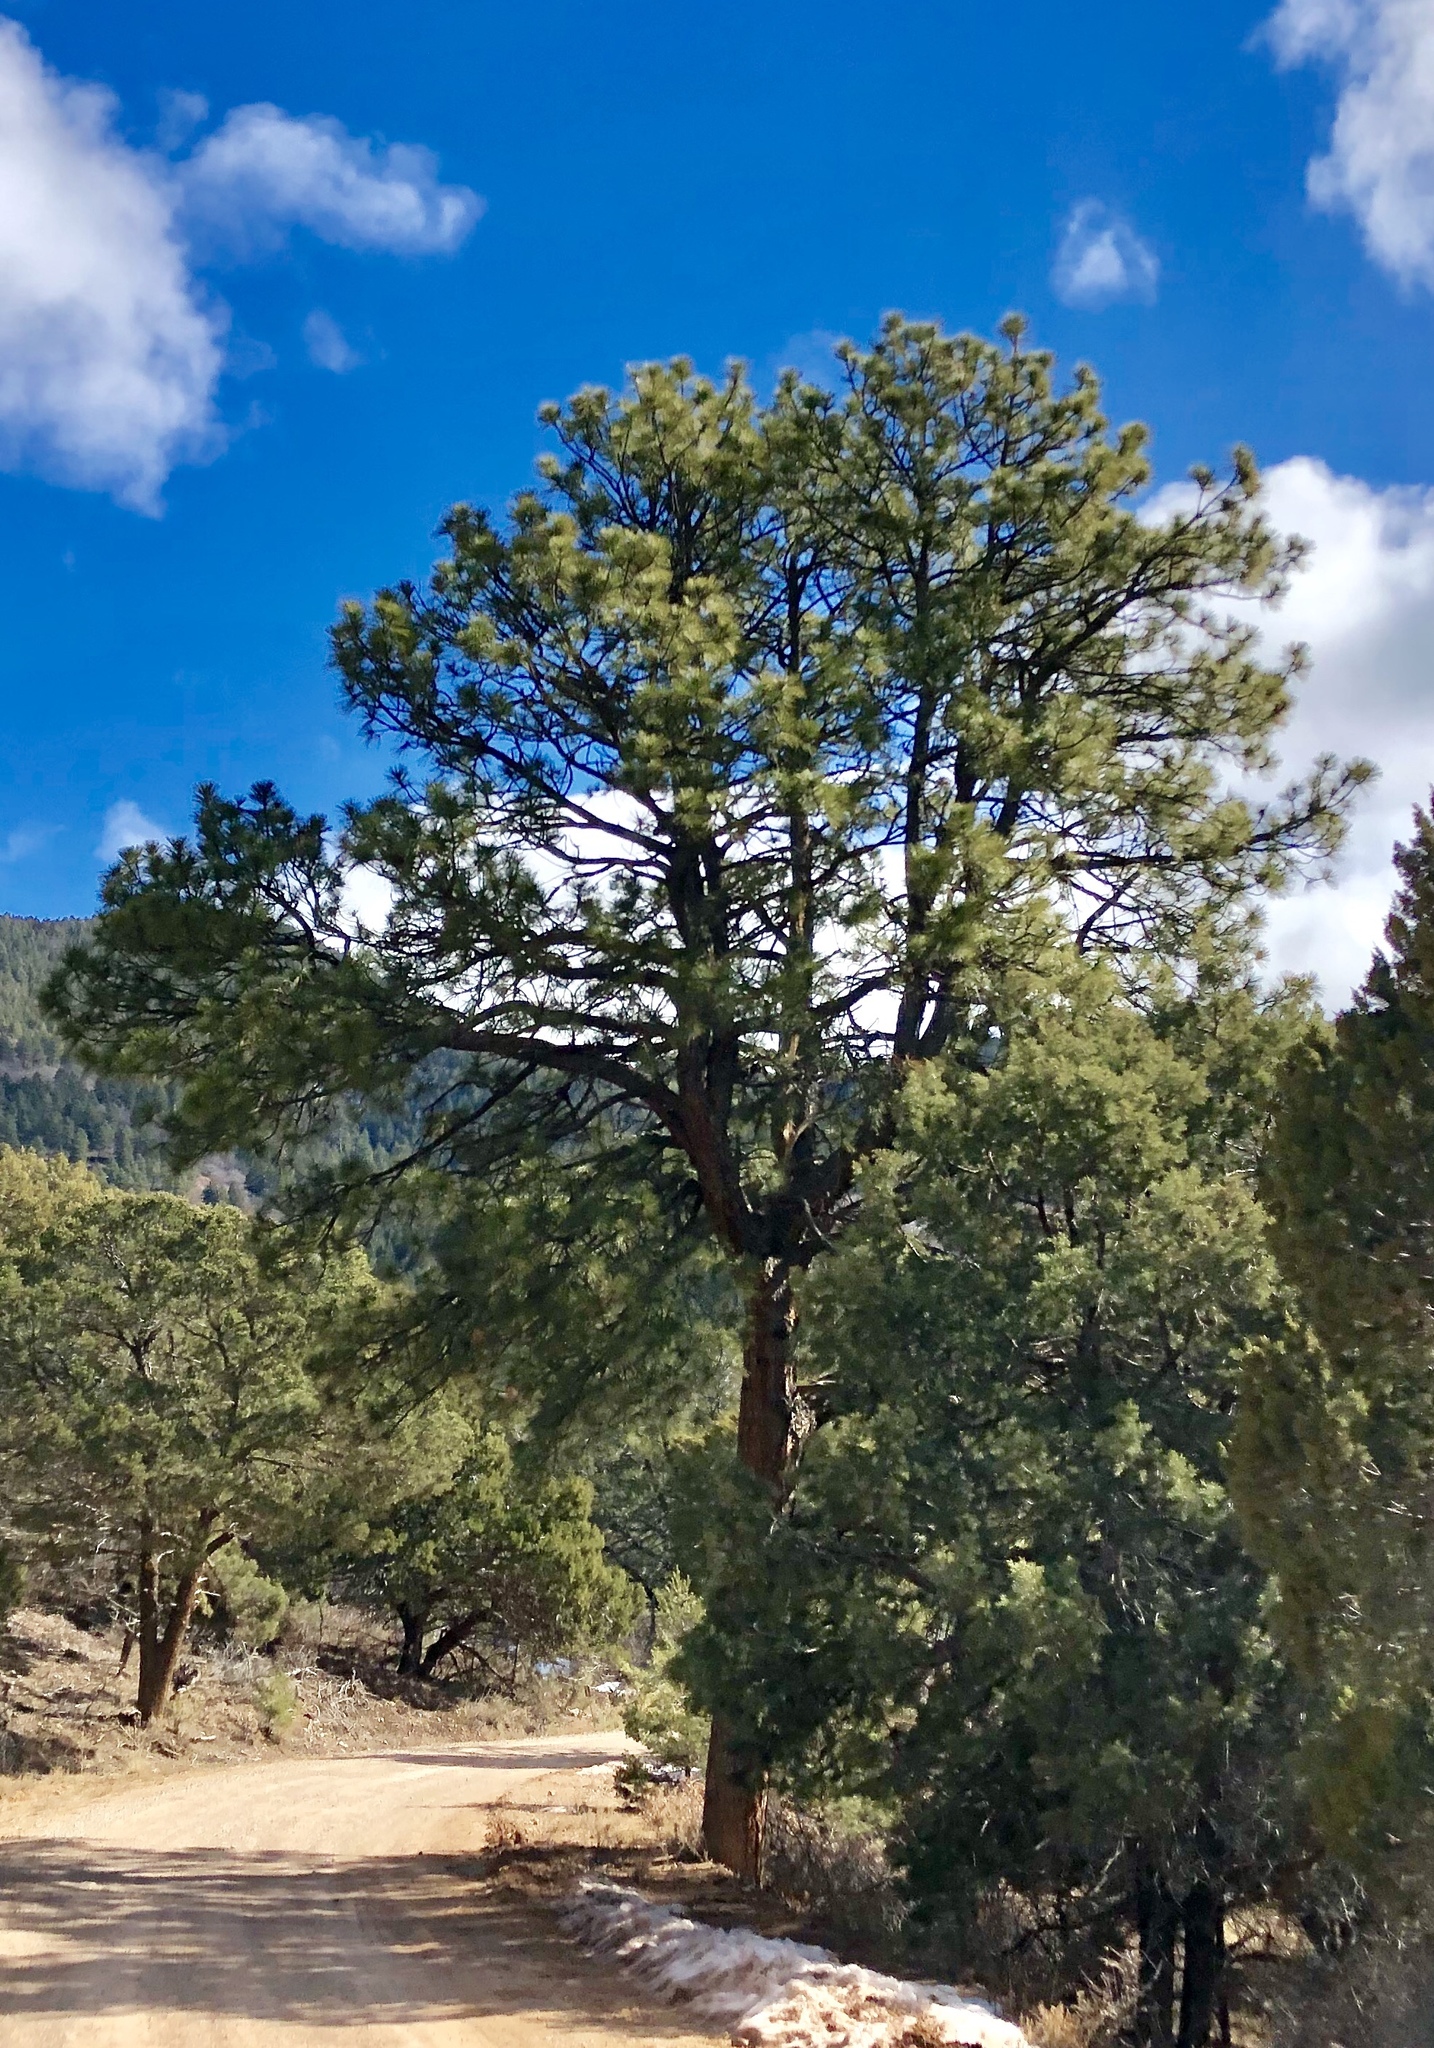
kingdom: Plantae
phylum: Tracheophyta
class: Pinopsida
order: Pinales
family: Pinaceae
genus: Pinus
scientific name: Pinus ponderosa
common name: Western yellow-pine
